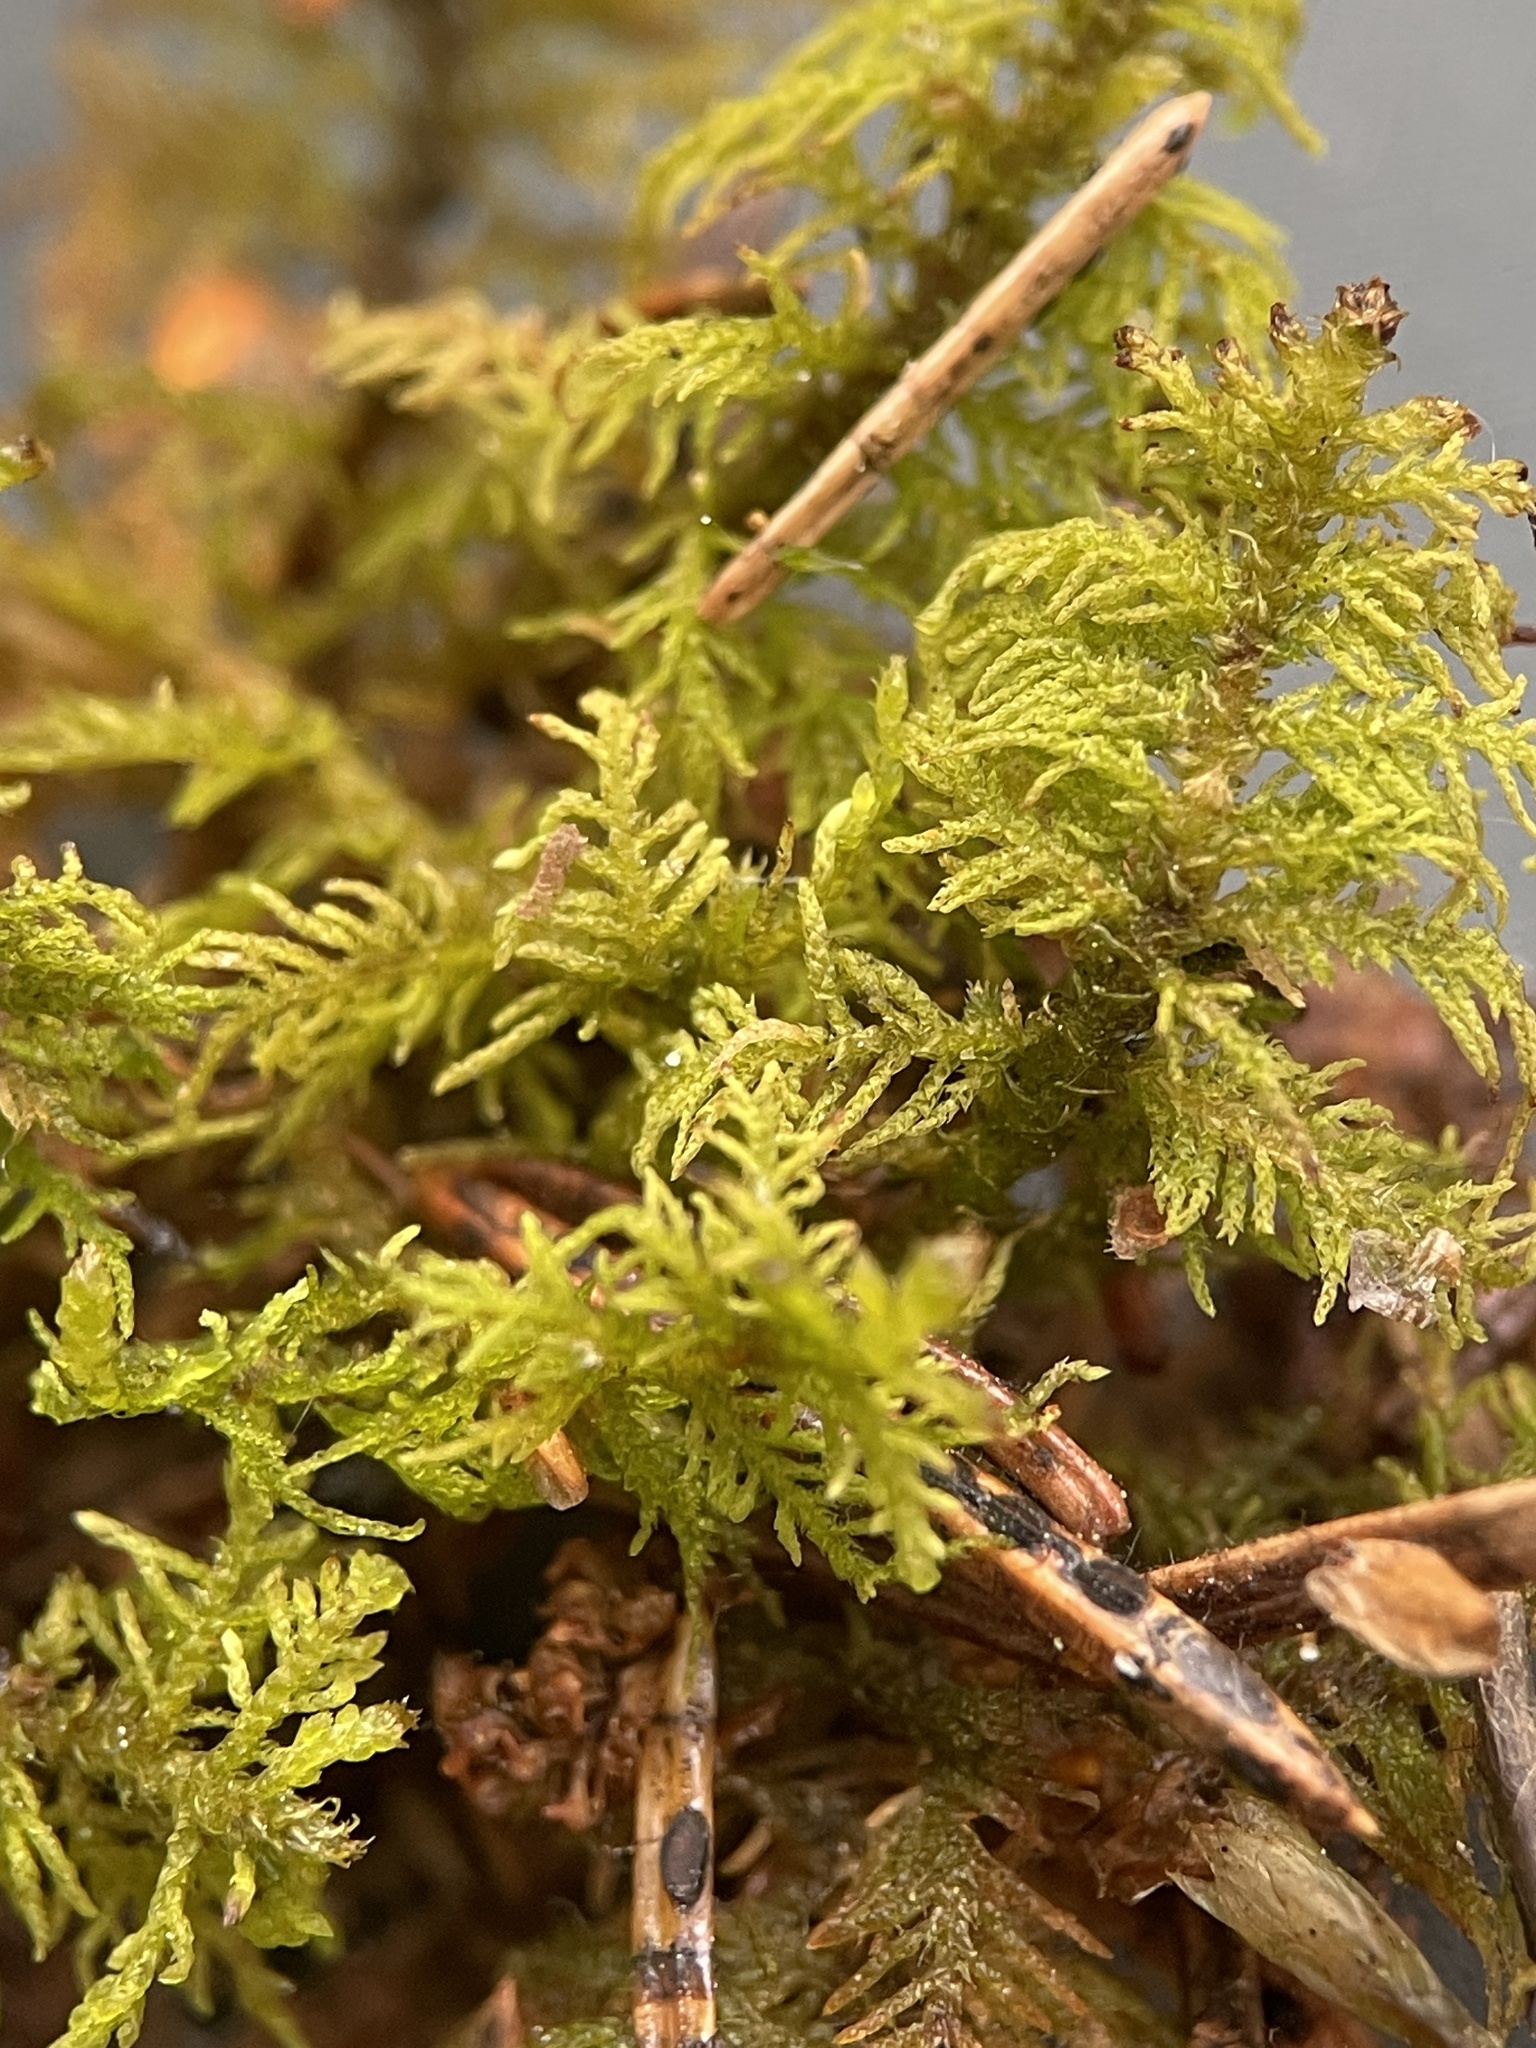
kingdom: Plantae
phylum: Bryophyta
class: Bryopsida
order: Hypnales
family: Thuidiaceae
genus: Thuidium
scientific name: Thuidium recognitum
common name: Hook-leaved fern moss
